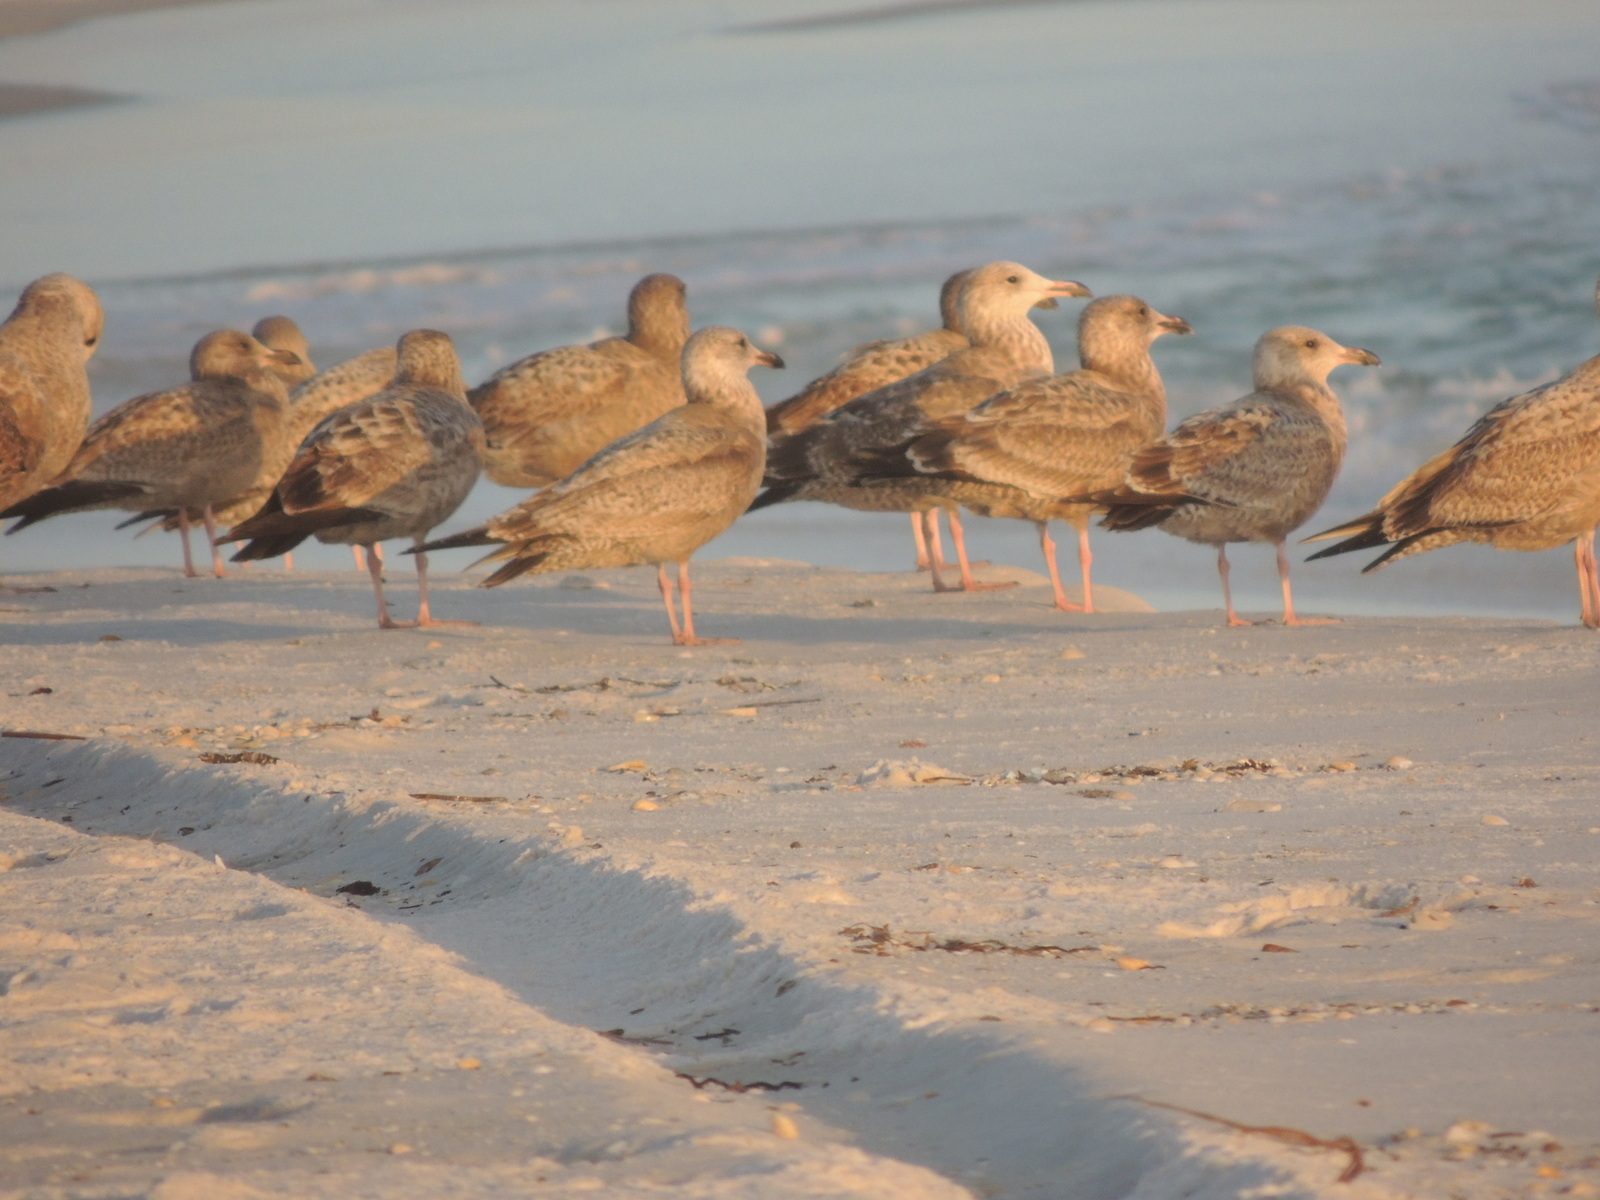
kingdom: Animalia
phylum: Chordata
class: Aves
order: Charadriiformes
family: Laridae
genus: Larus
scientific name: Larus argentatus
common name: Herring gull
